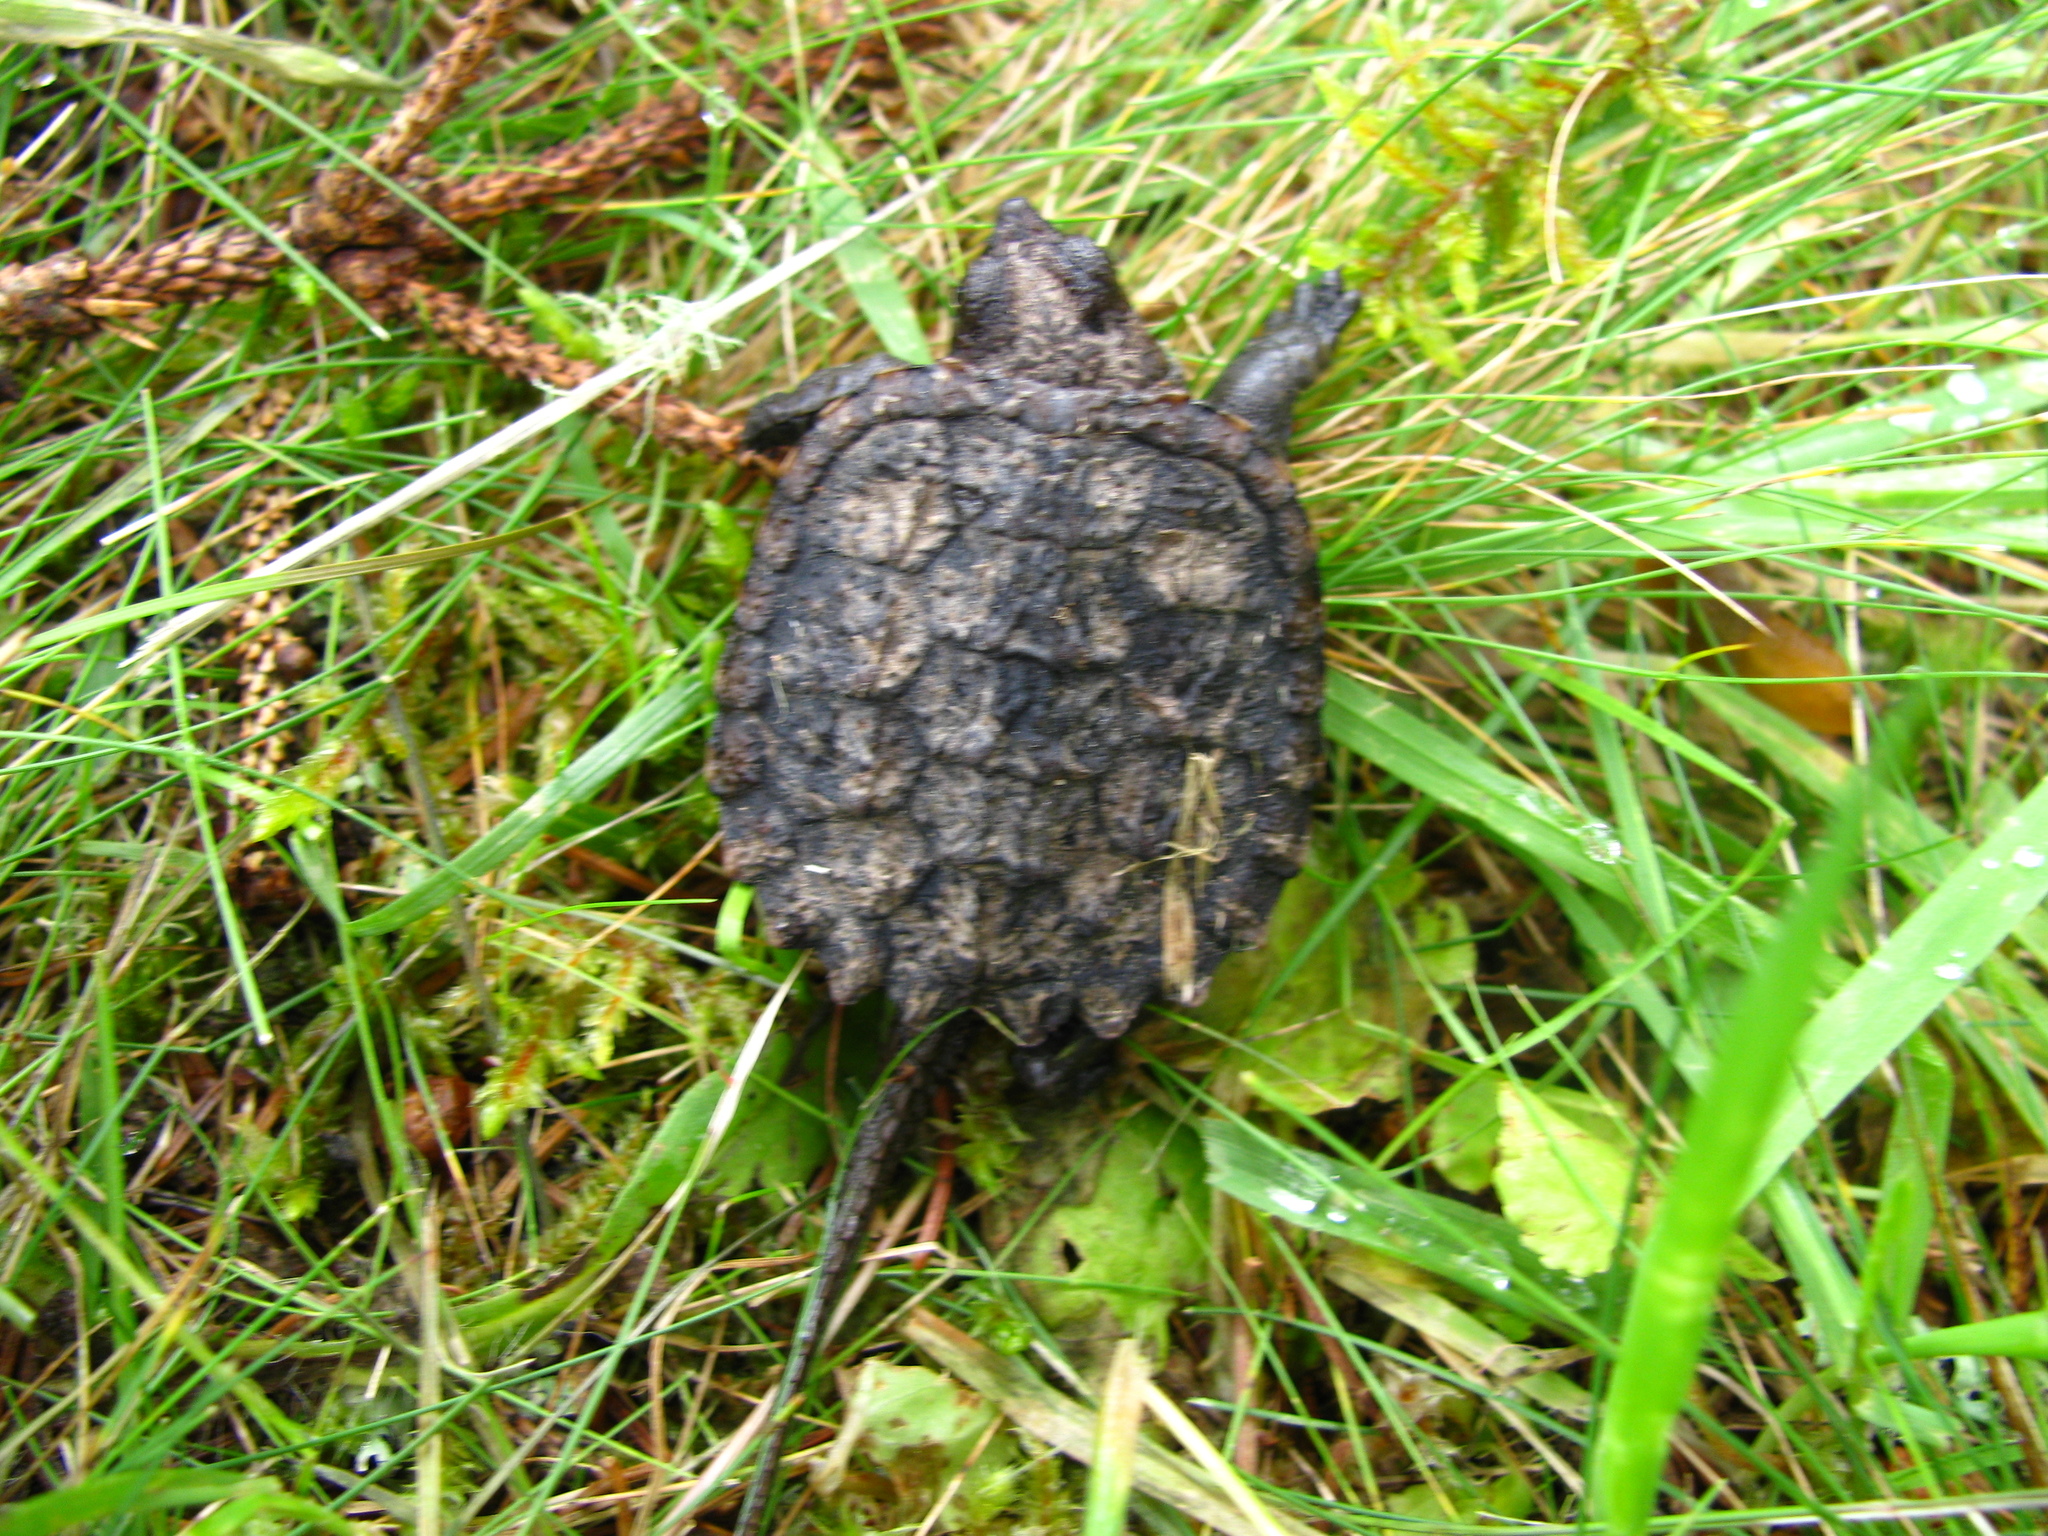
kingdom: Animalia
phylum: Chordata
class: Testudines
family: Chelydridae
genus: Chelydra
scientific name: Chelydra serpentina
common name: Common snapping turtle
